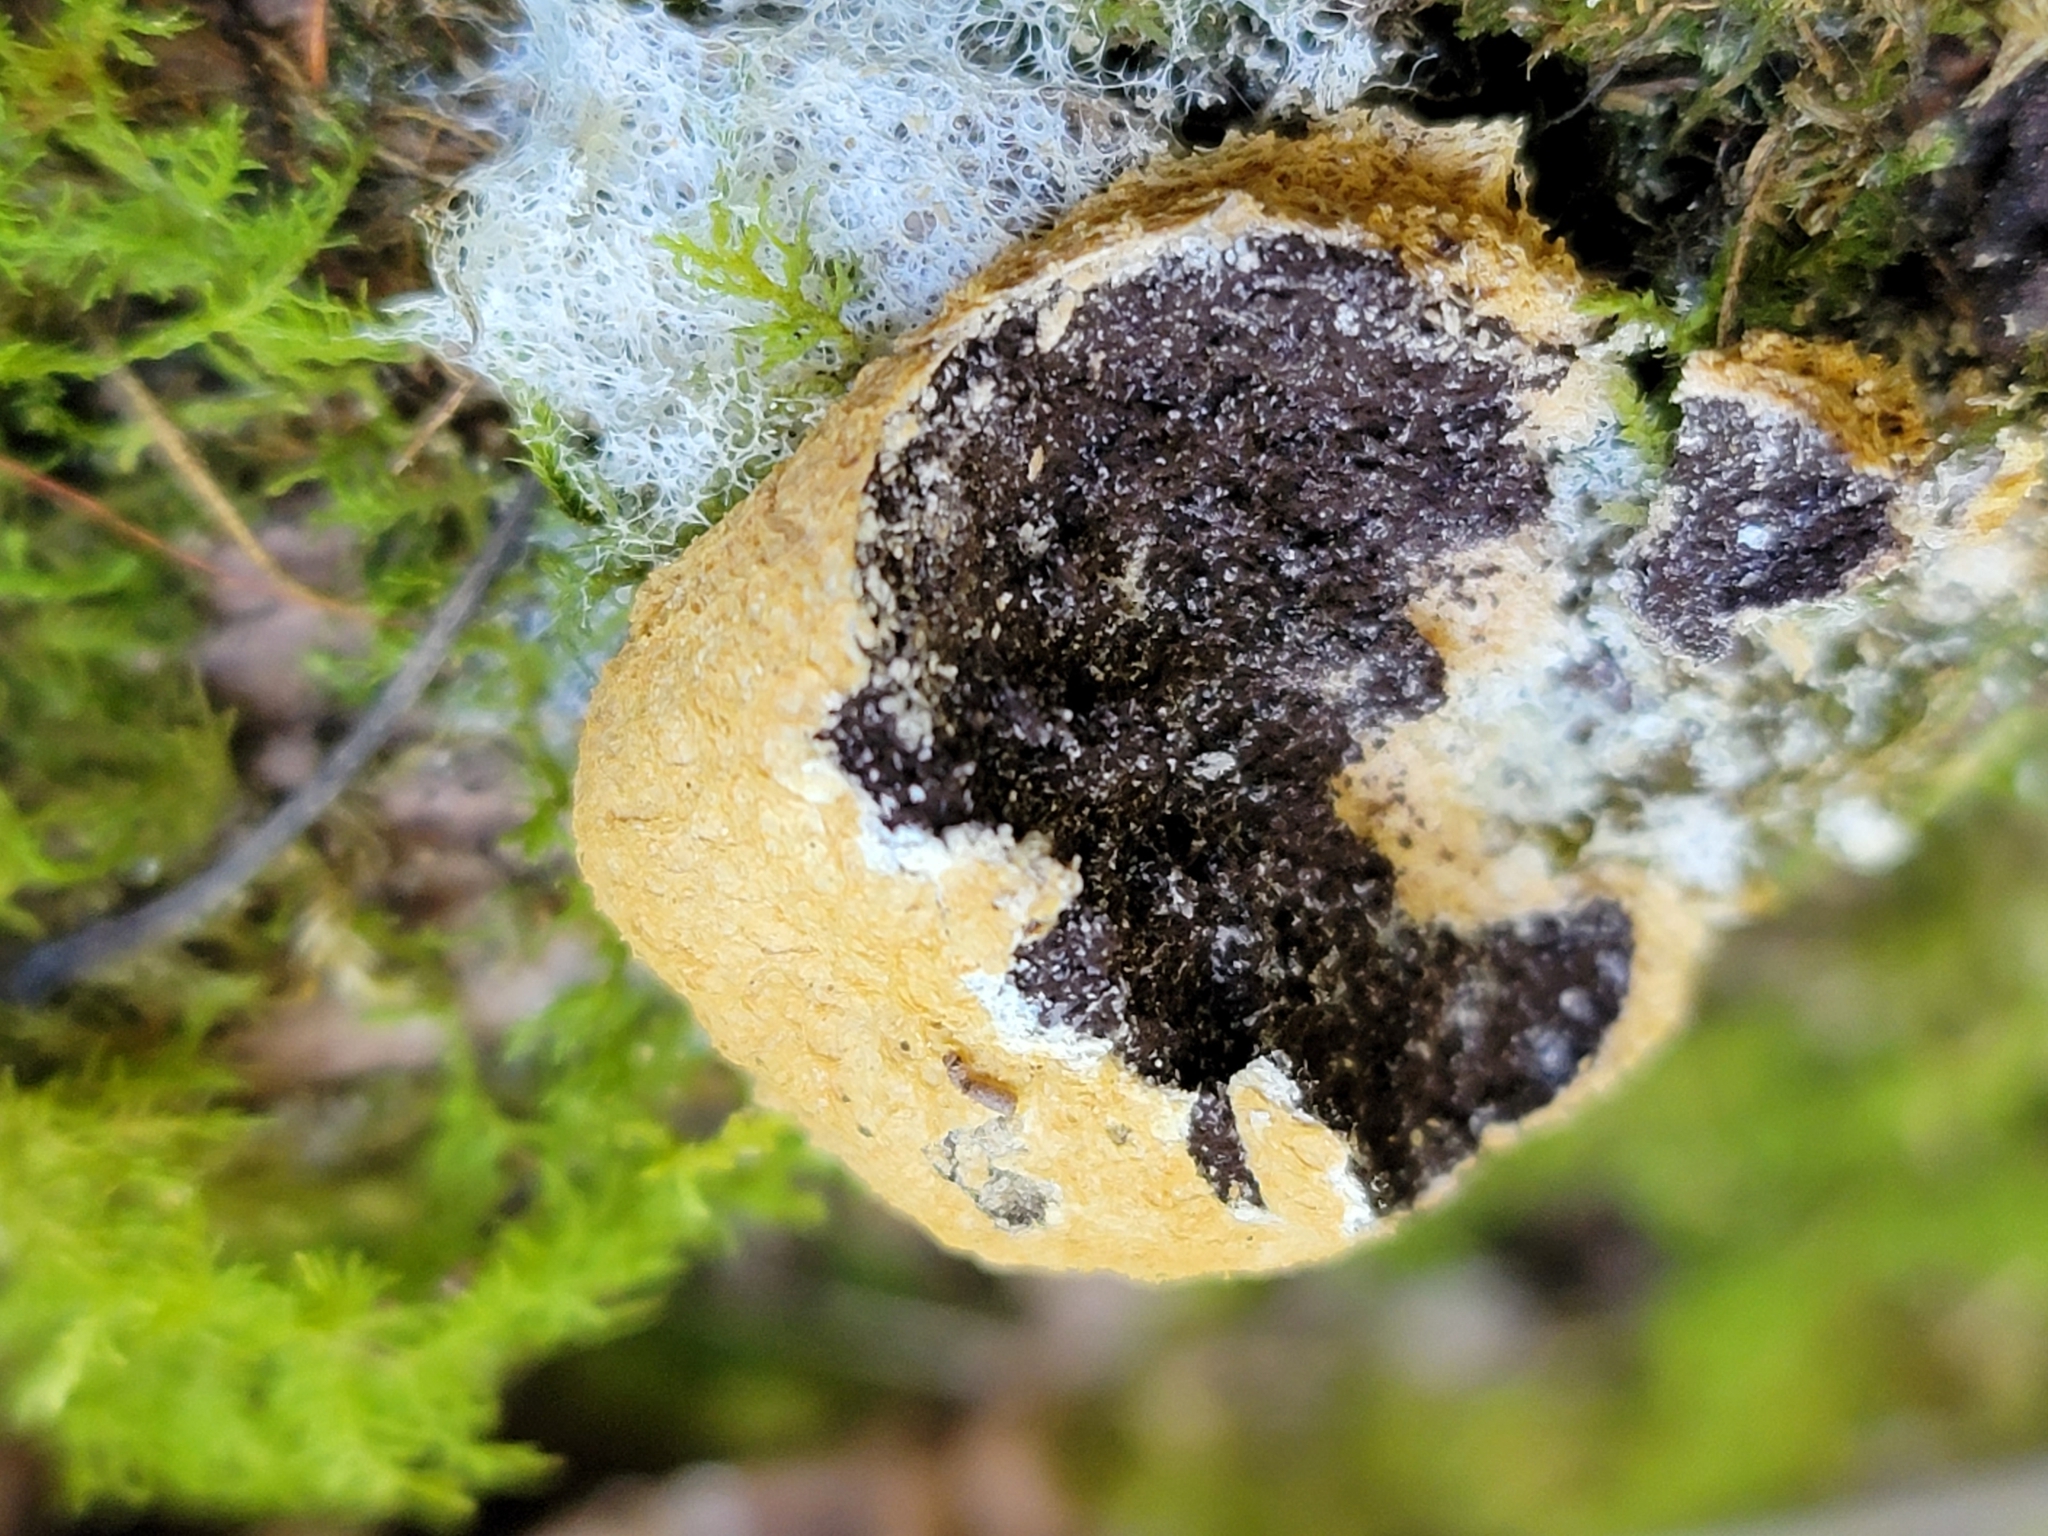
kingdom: Protozoa
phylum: Mycetozoa
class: Myxomycetes
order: Physarales
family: Physaraceae
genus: Fuligo
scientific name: Fuligo septica
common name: Dog vomit slime mold
